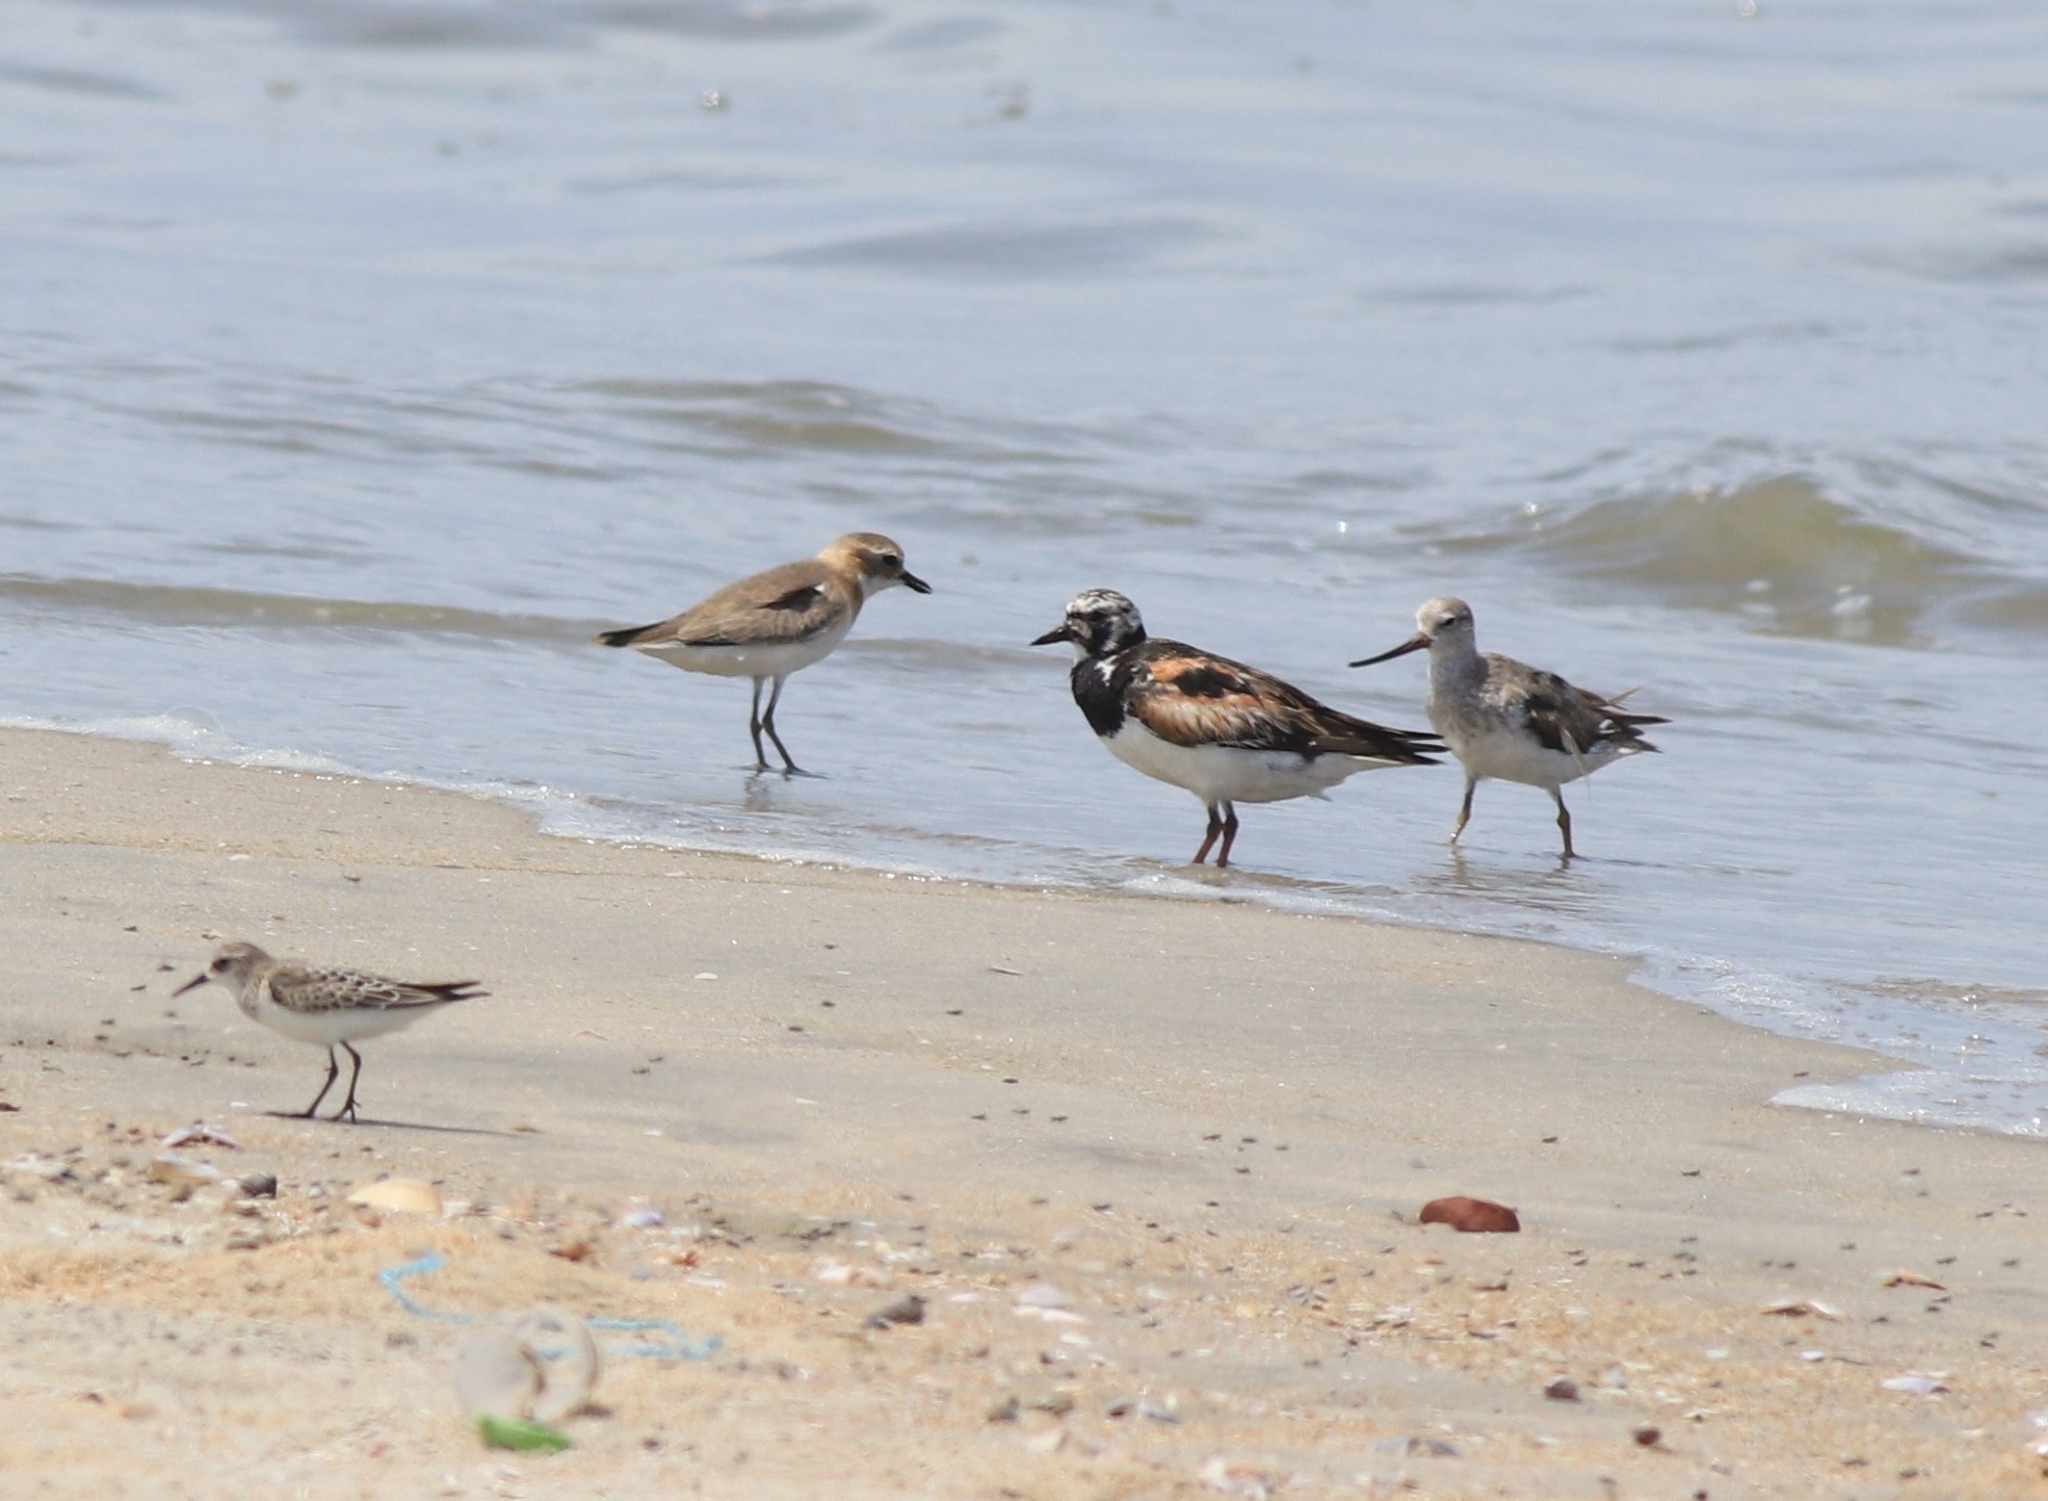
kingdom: Animalia
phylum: Chordata
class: Aves
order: Charadriiformes
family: Scolopacidae
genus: Arenaria
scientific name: Arenaria interpres
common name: Ruddy turnstone
